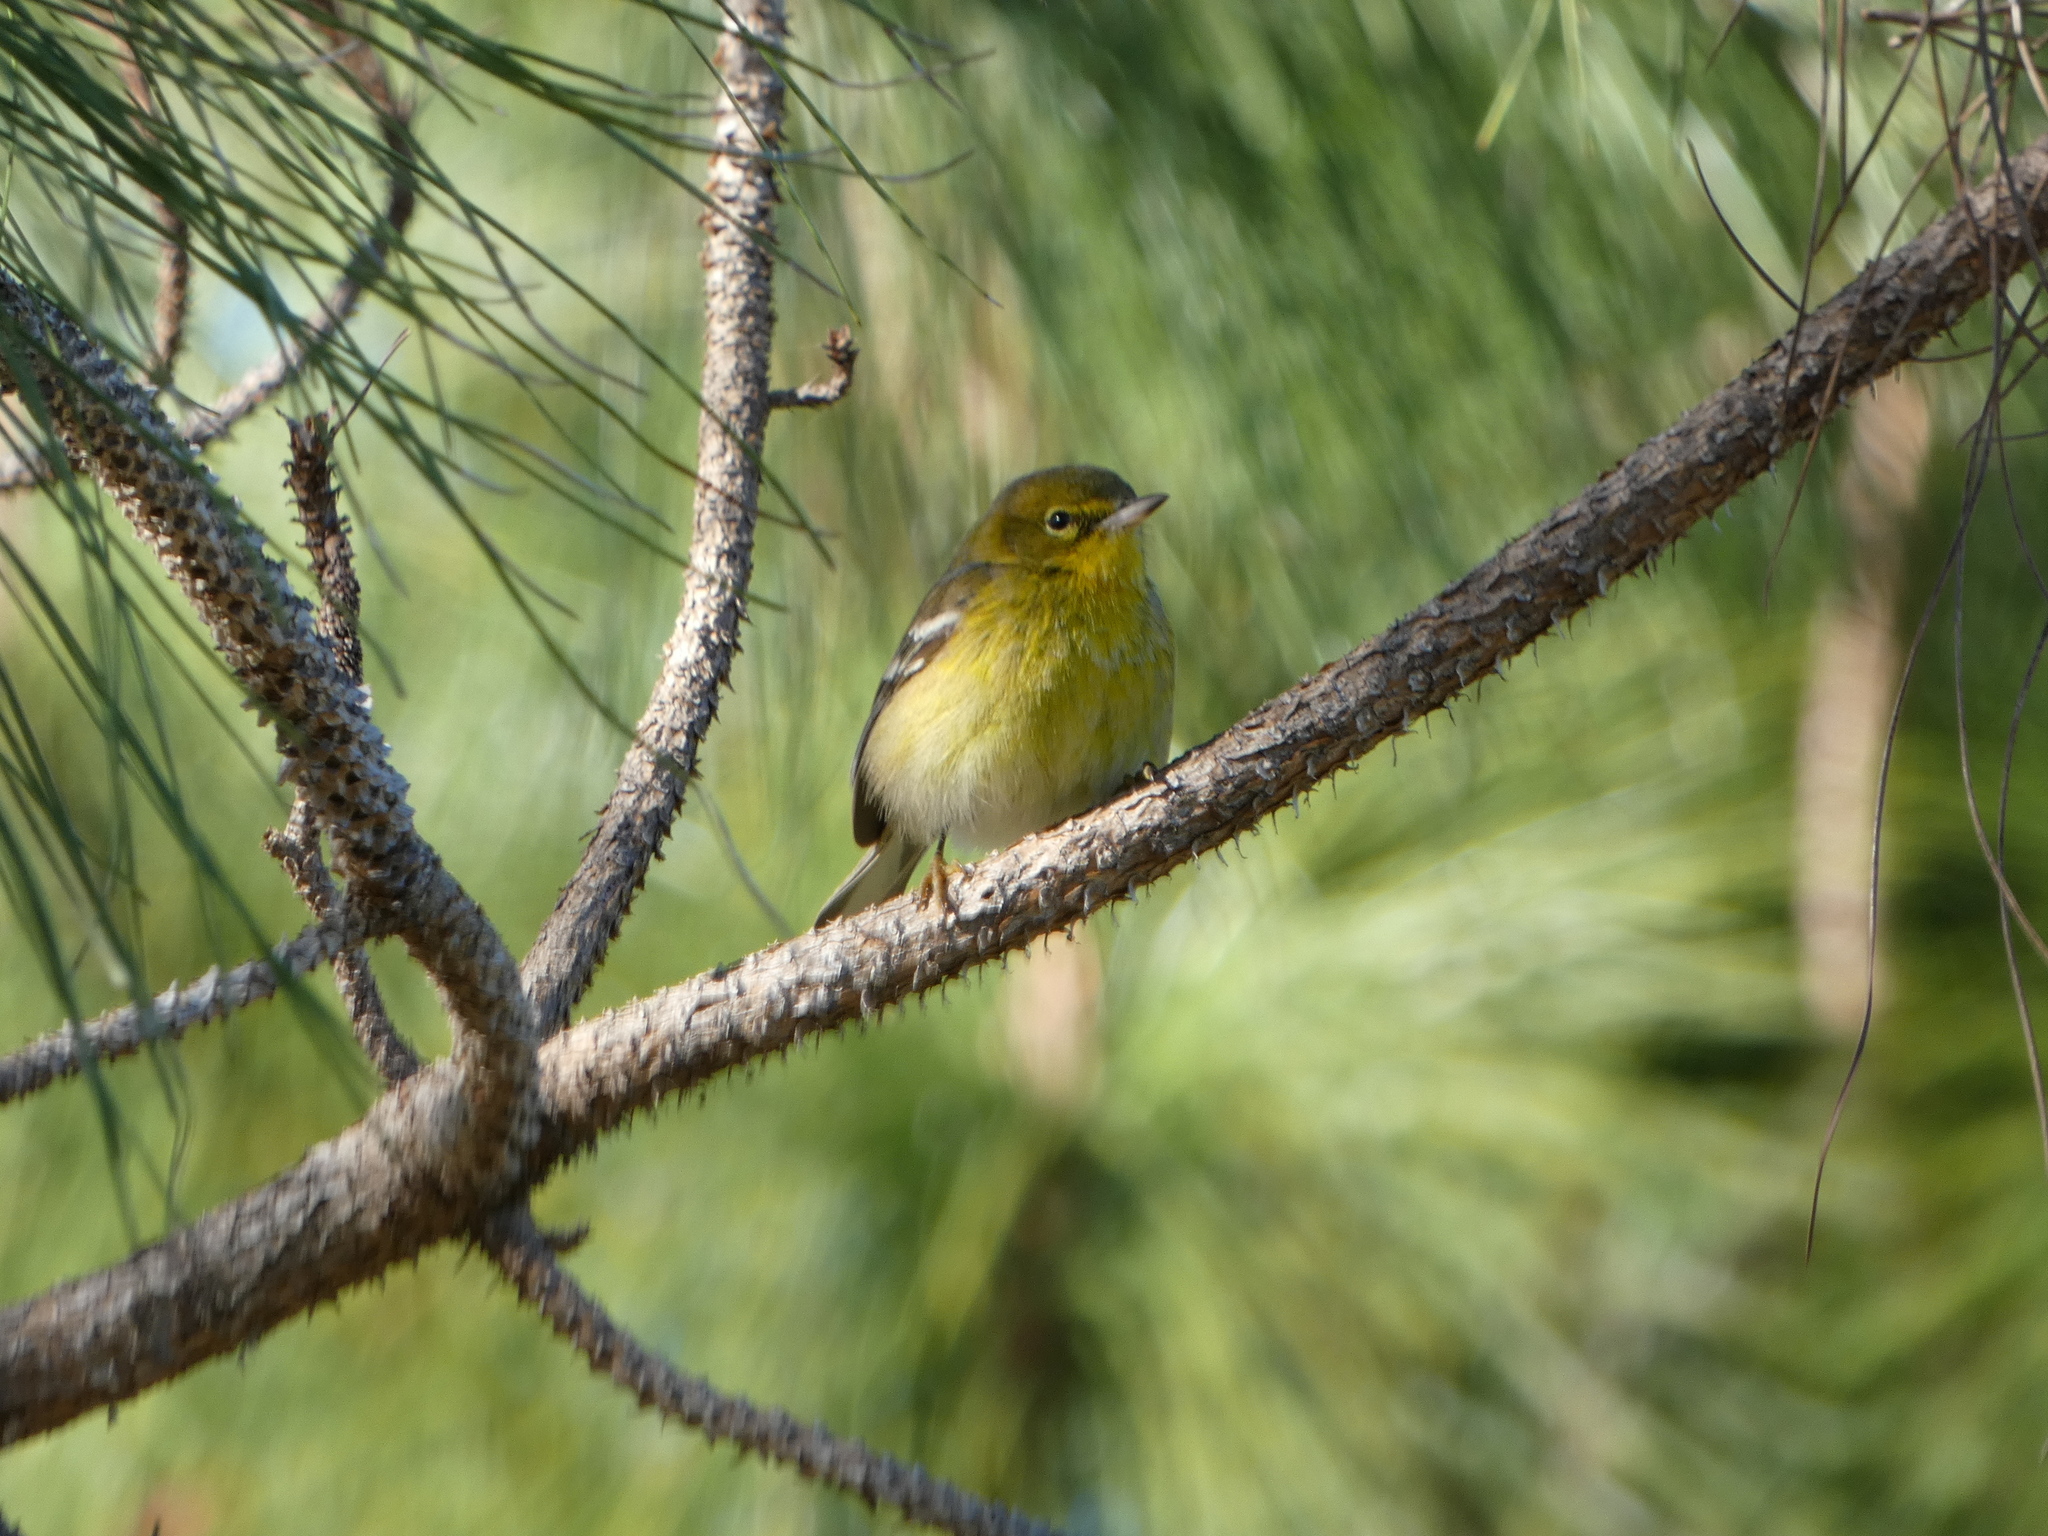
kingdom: Animalia
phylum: Chordata
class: Aves
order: Passeriformes
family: Parulidae
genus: Setophaga
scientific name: Setophaga pinus
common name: Pine warbler
